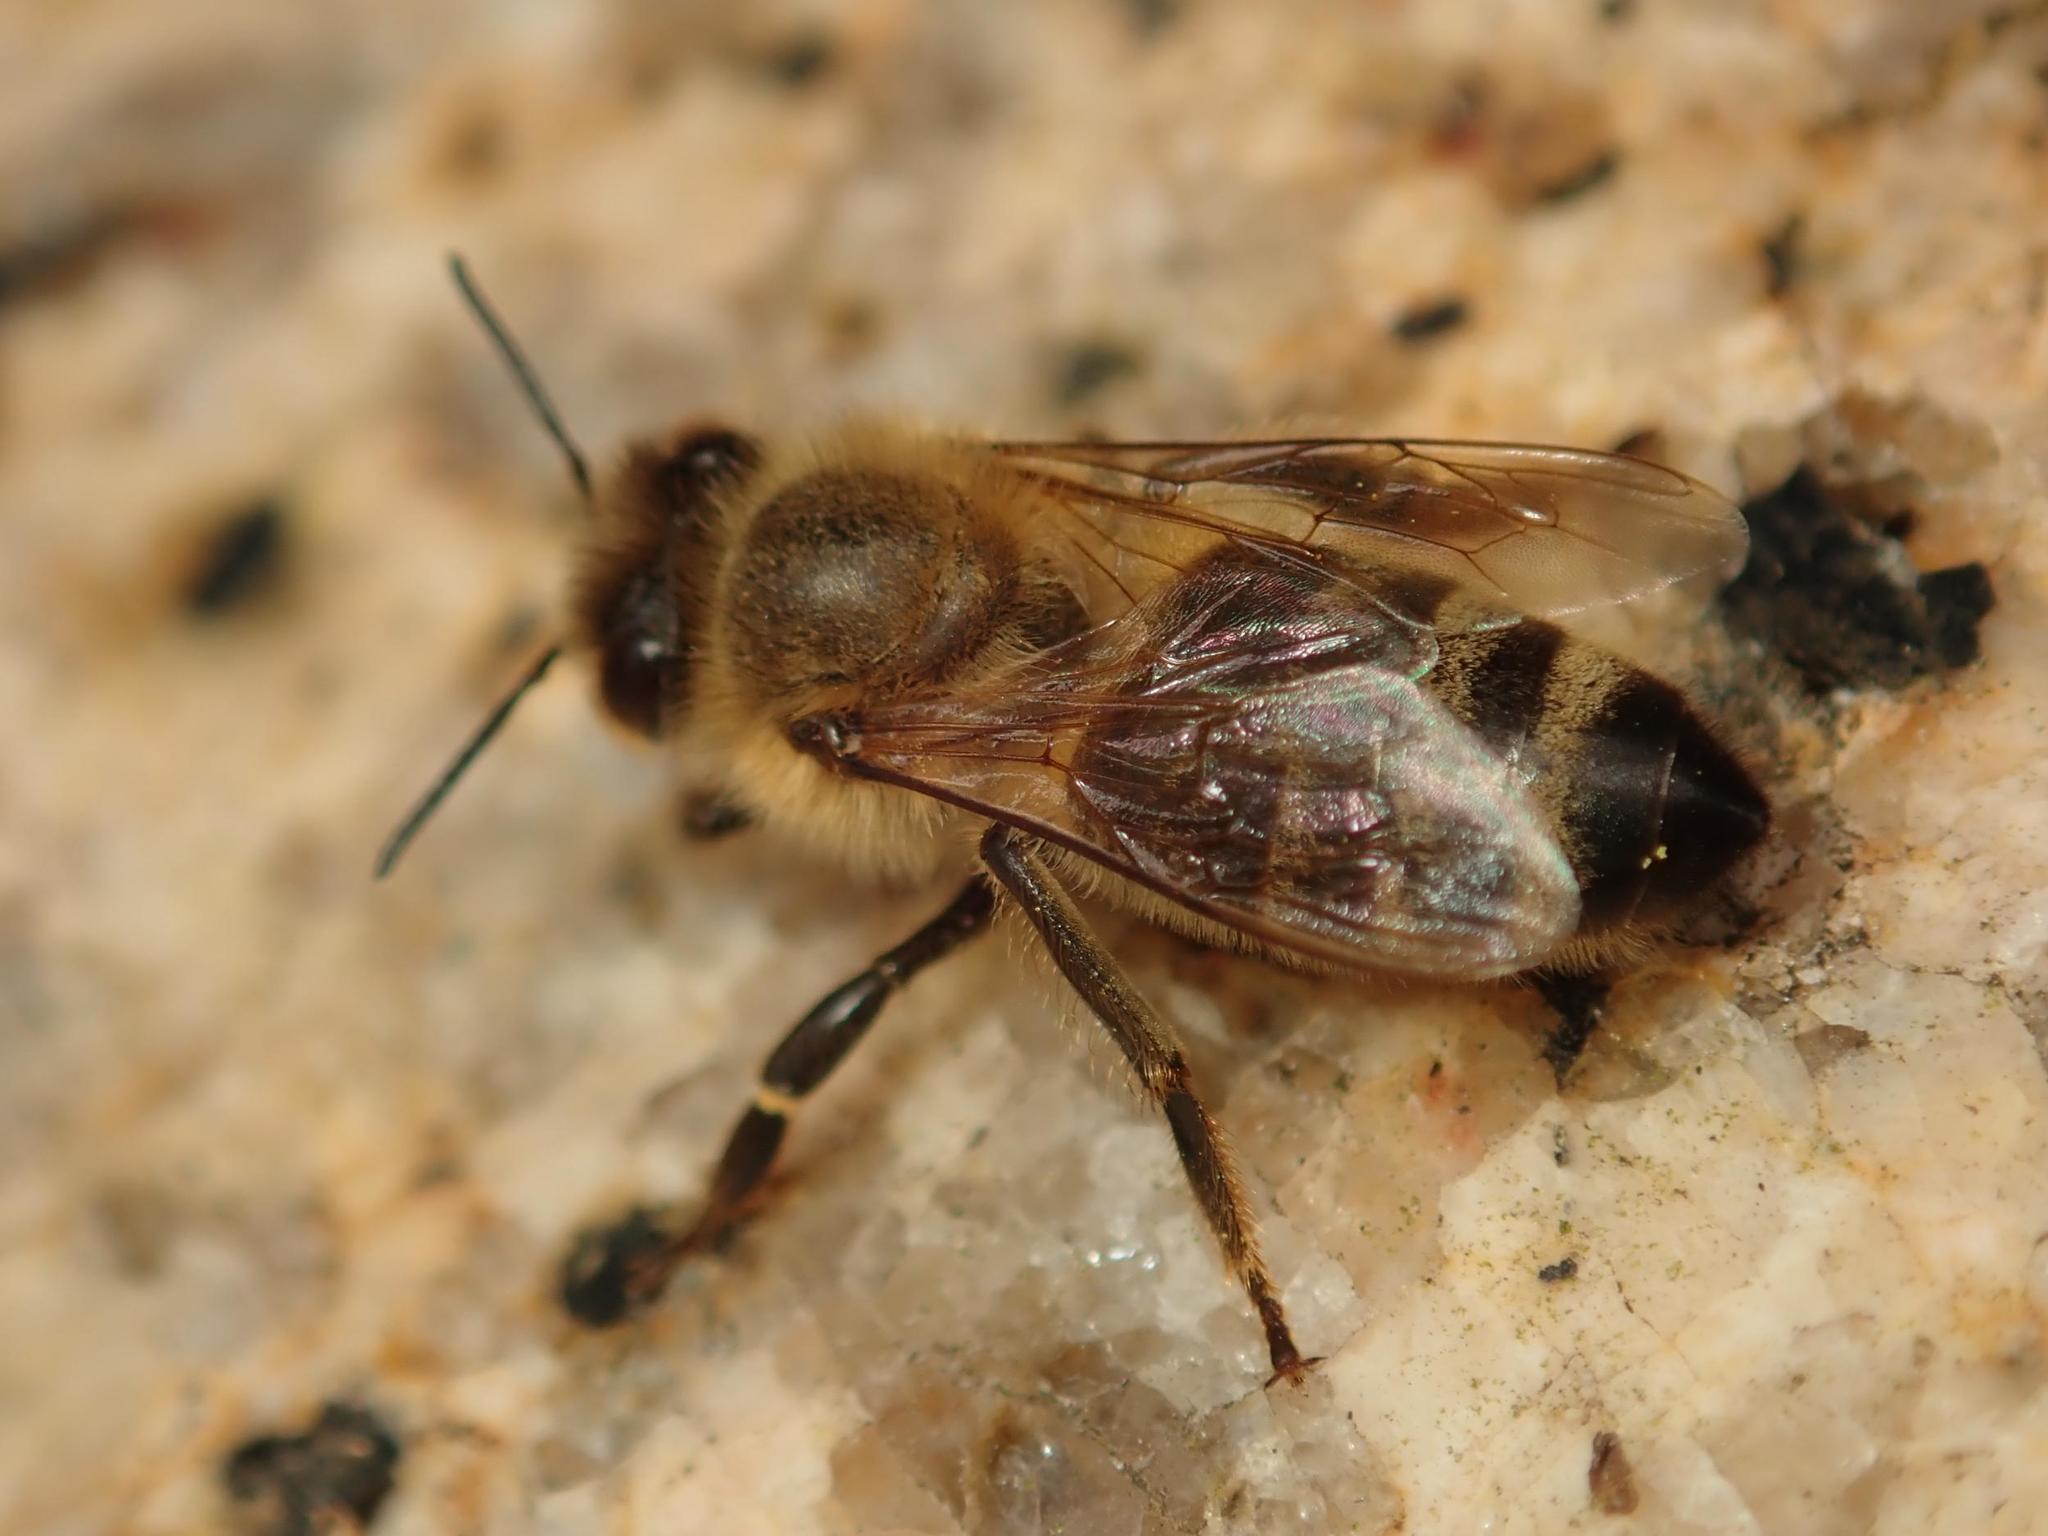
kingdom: Animalia
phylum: Arthropoda
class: Insecta
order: Hymenoptera
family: Apidae
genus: Apis
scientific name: Apis mellifera
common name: Honey bee
